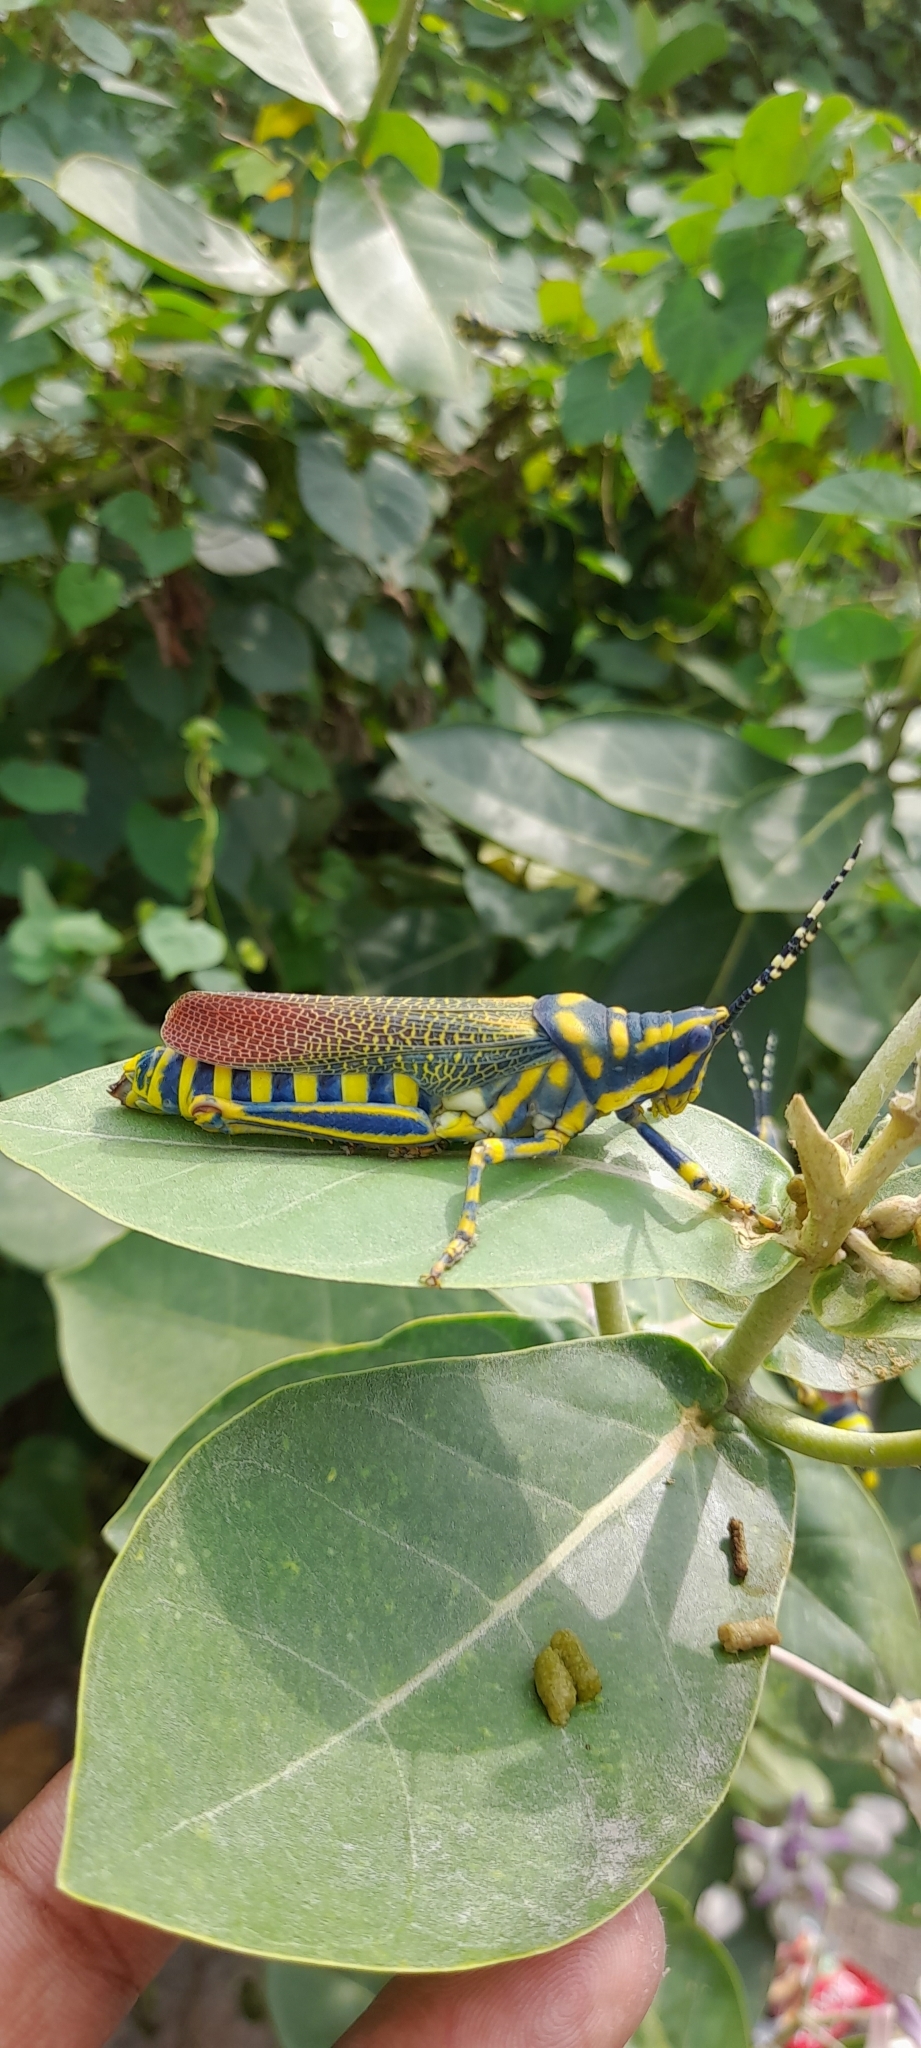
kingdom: Animalia
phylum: Arthropoda
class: Insecta
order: Orthoptera
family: Pyrgomorphidae
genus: Poekilocerus
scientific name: Poekilocerus pictus
